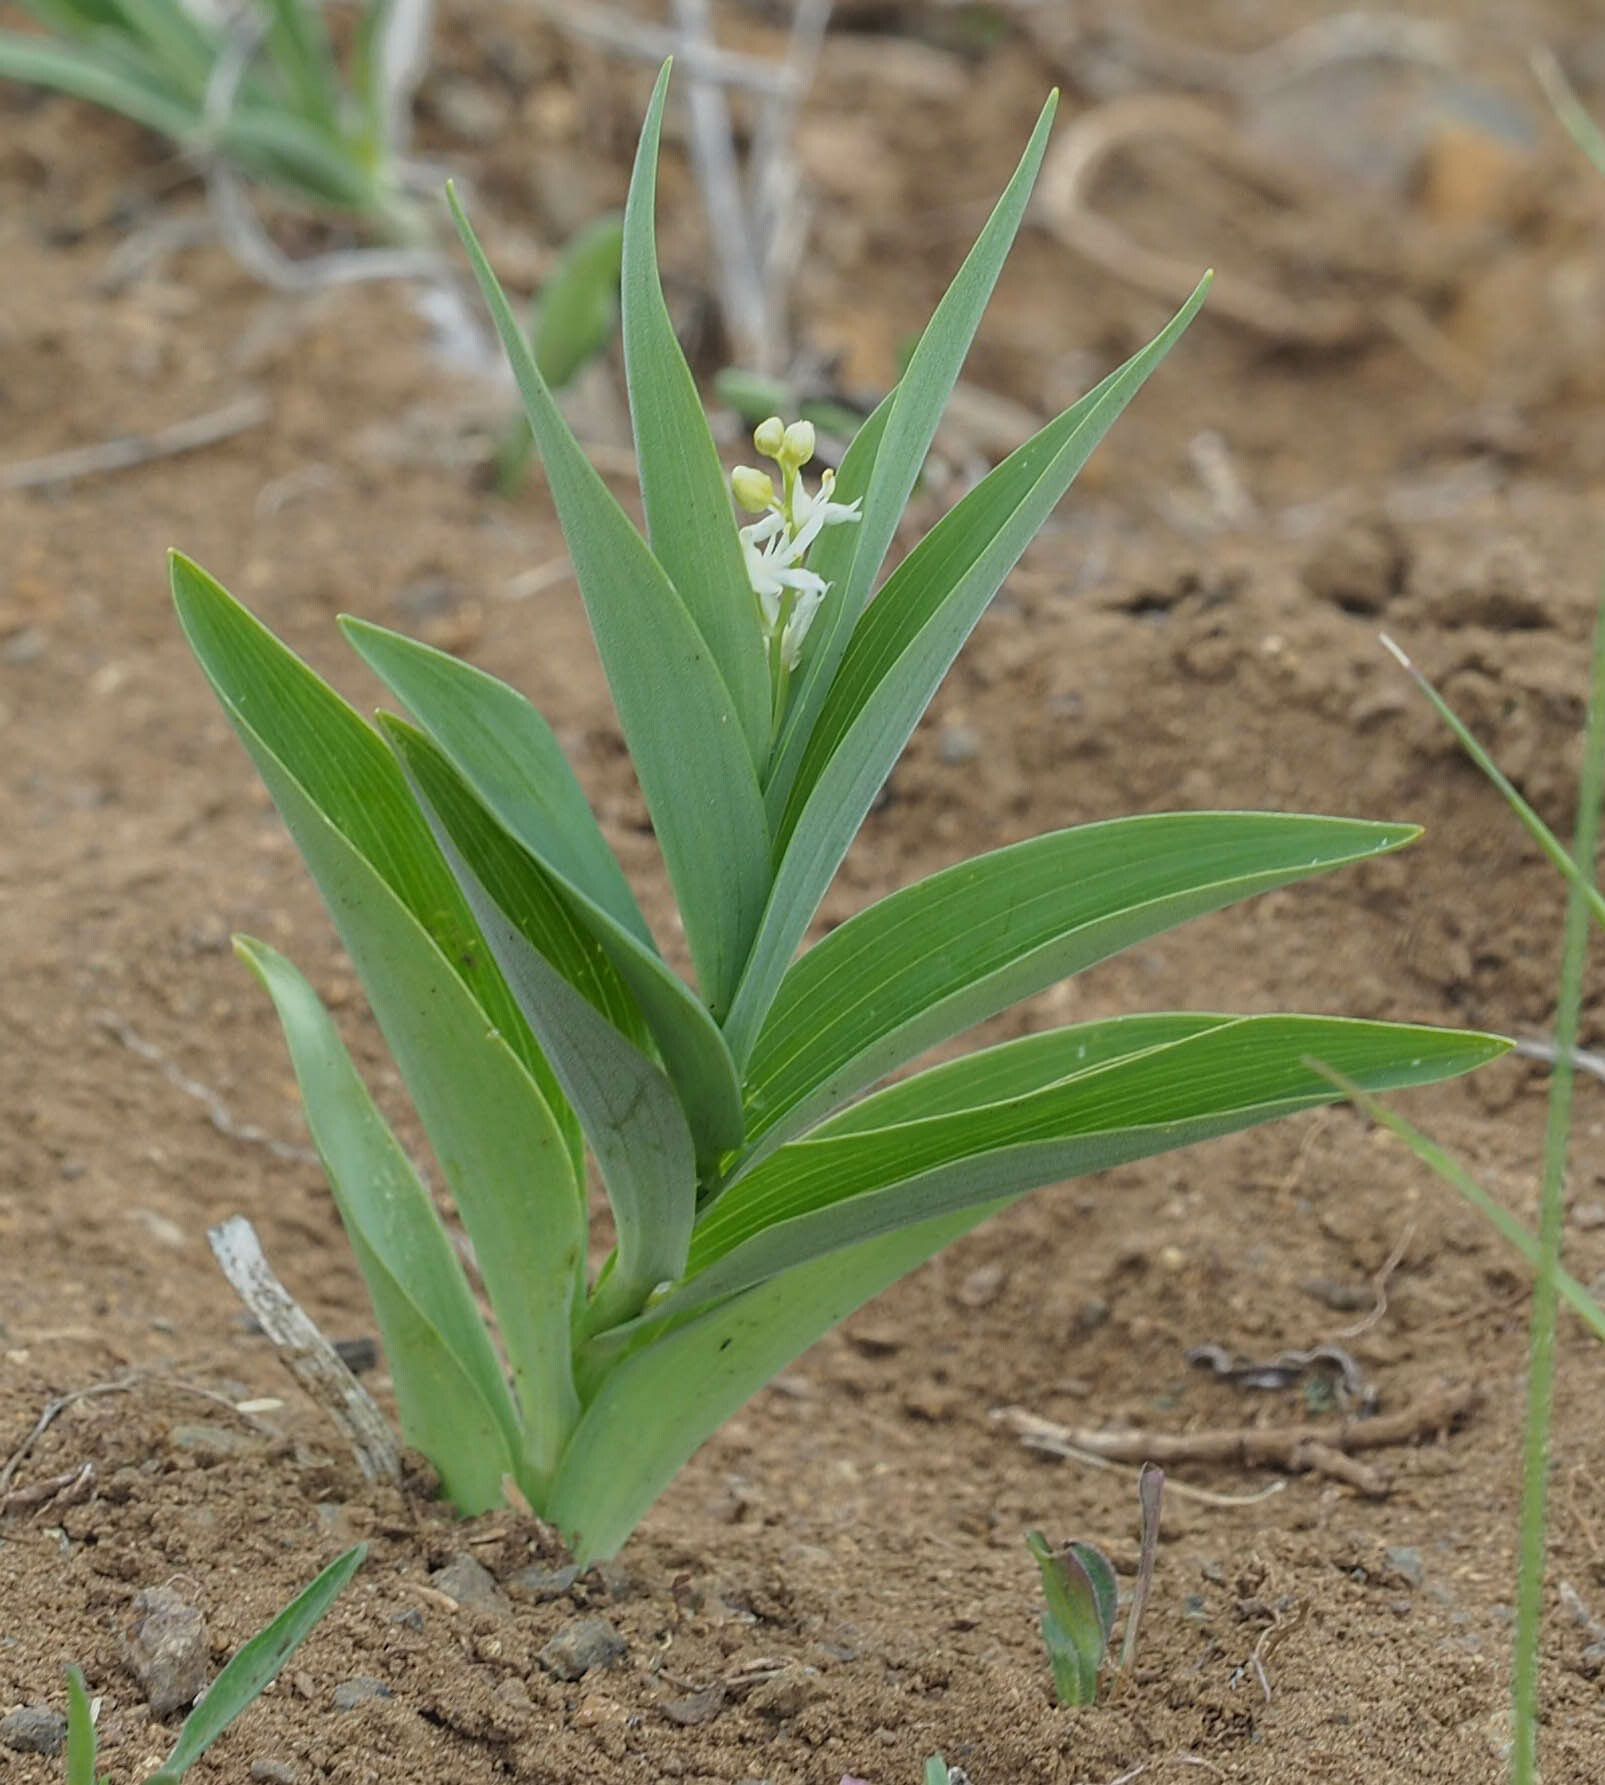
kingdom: Plantae
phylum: Tracheophyta
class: Liliopsida
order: Asparagales
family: Asparagaceae
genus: Maianthemum
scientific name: Maianthemum stellatum
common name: Little false solomon's seal
